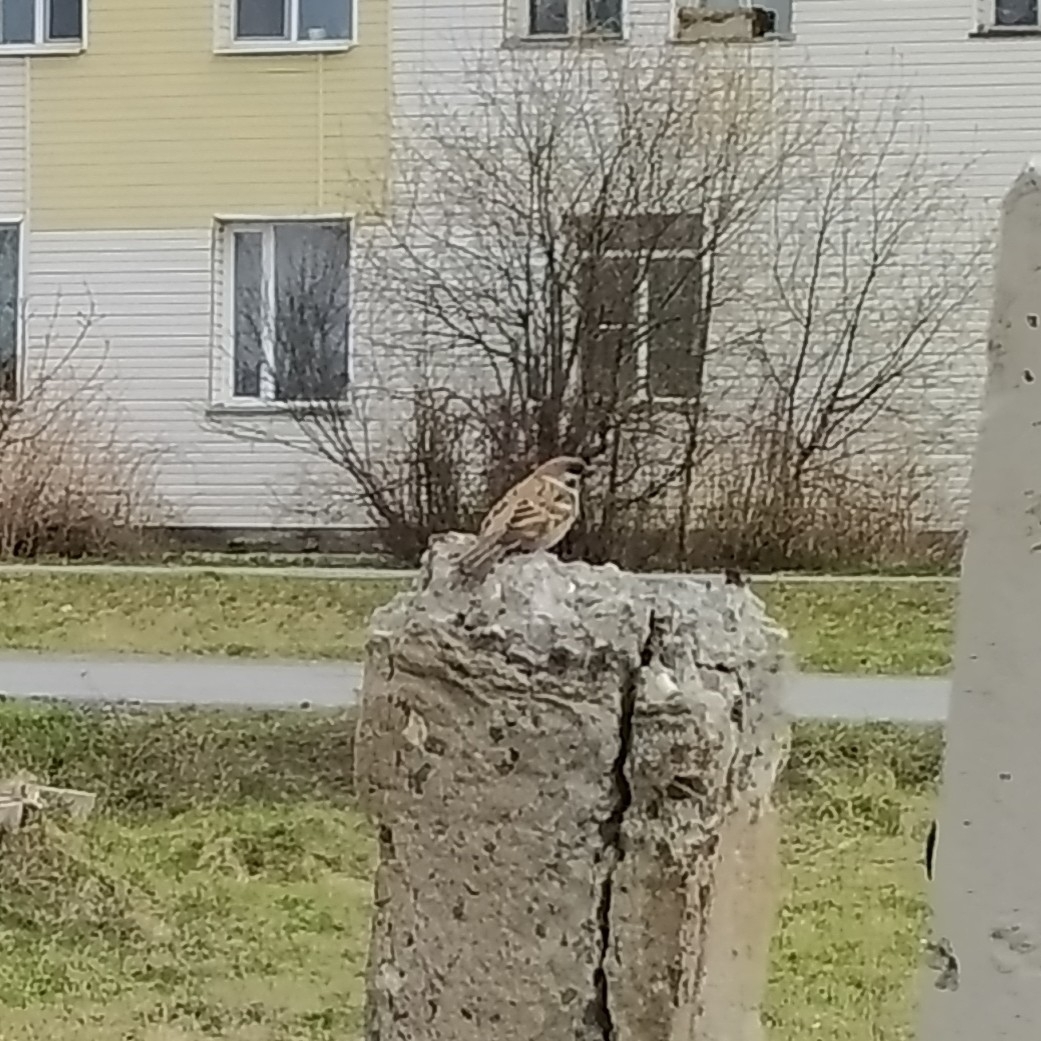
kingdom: Animalia
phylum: Chordata
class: Aves
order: Passeriformes
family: Passeridae
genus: Passer
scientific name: Passer montanus
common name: Eurasian tree sparrow
